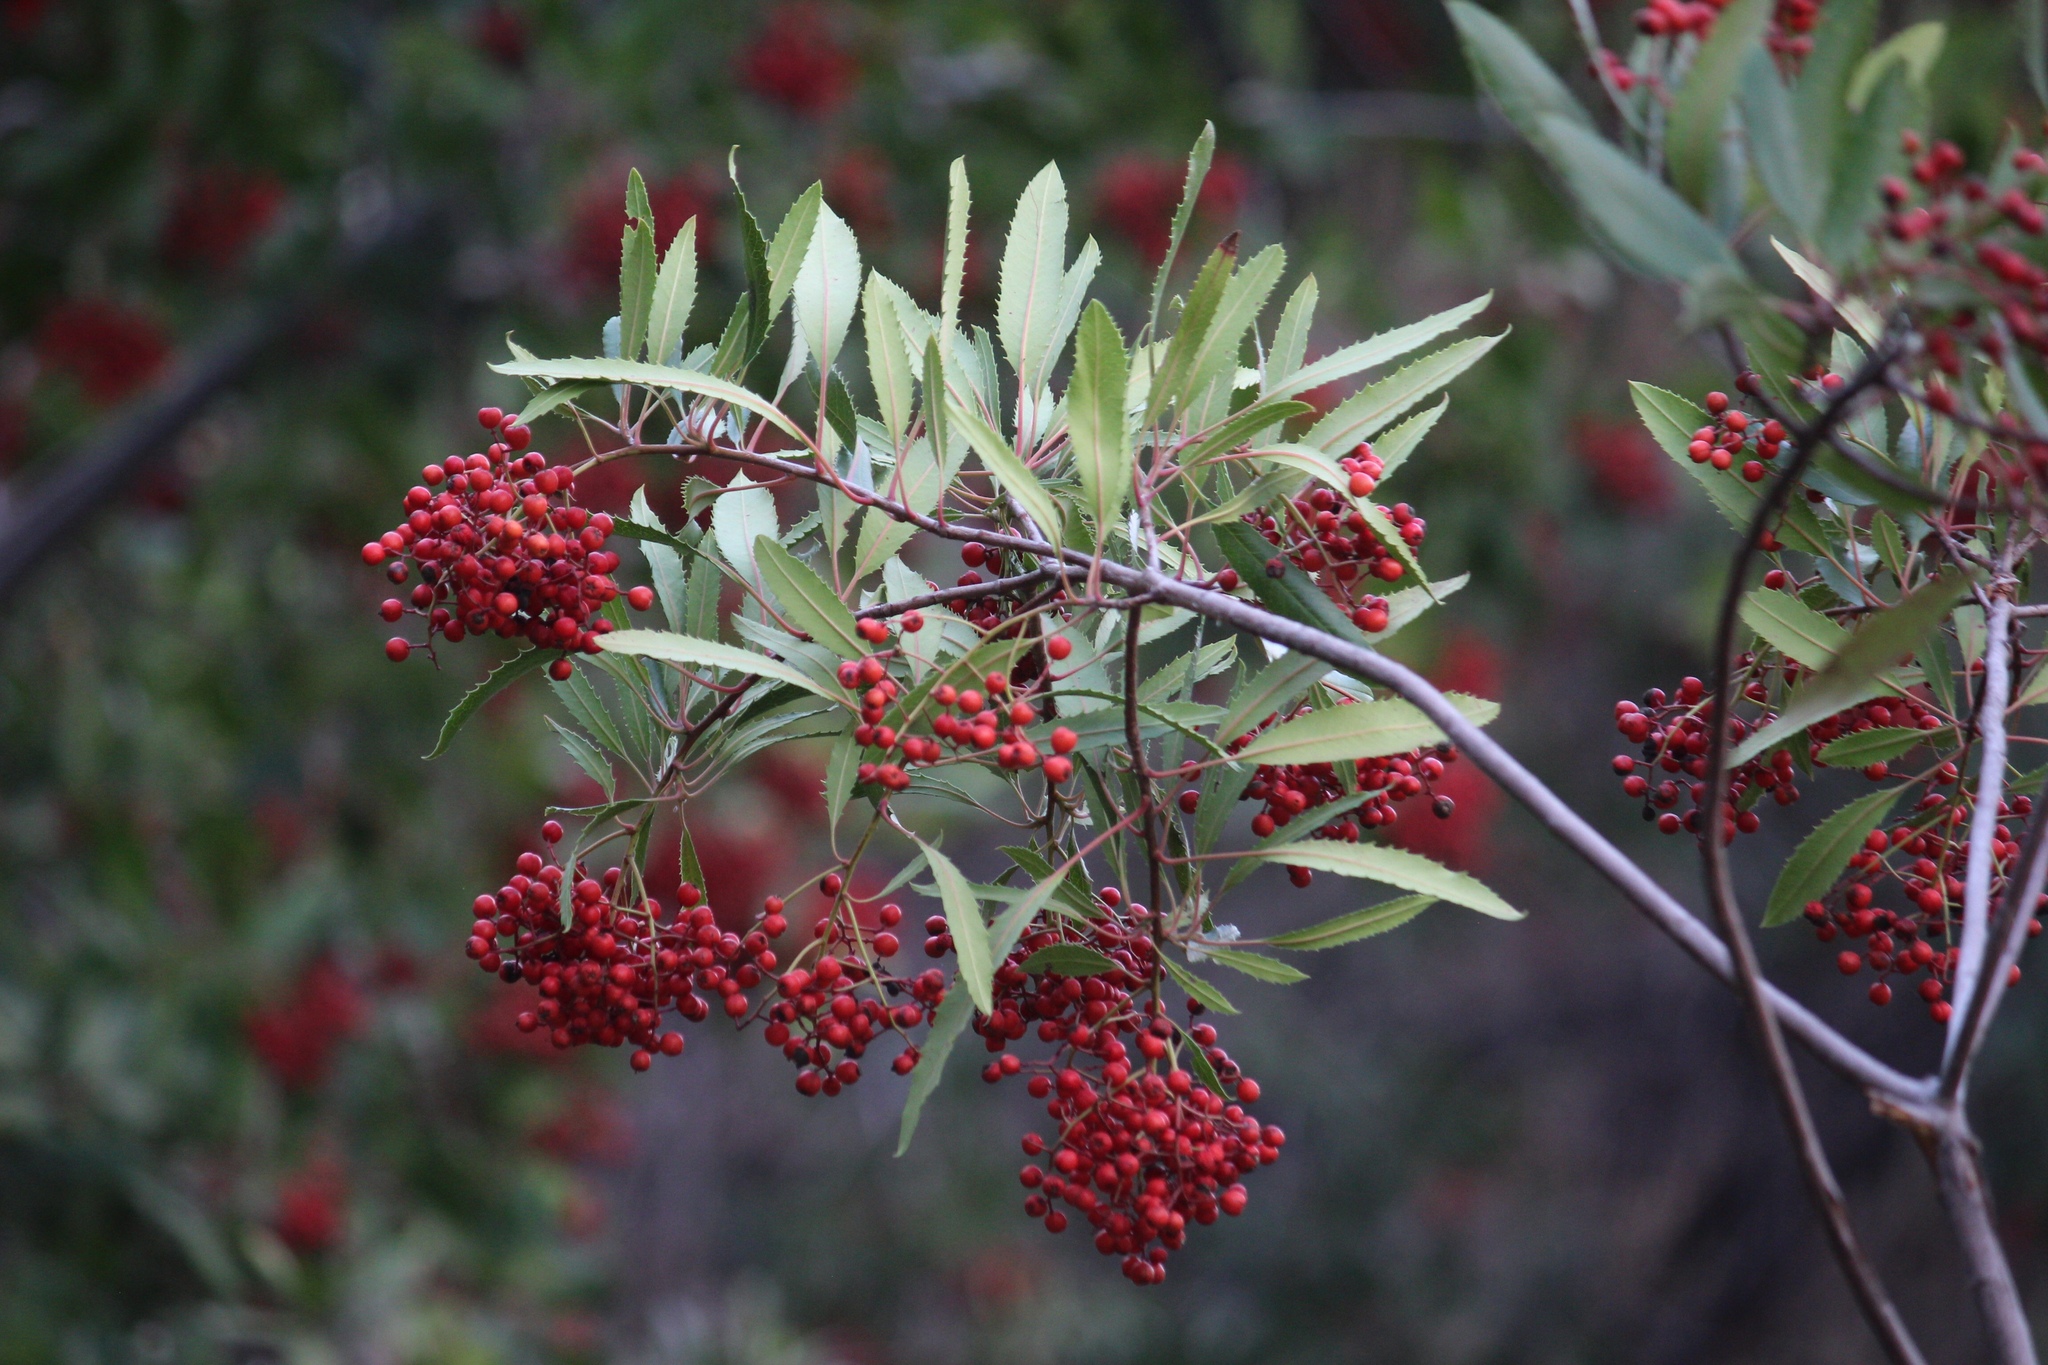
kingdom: Plantae
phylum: Tracheophyta
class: Magnoliopsida
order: Rosales
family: Rosaceae
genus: Heteromeles
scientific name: Heteromeles arbutifolia
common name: California-holly
